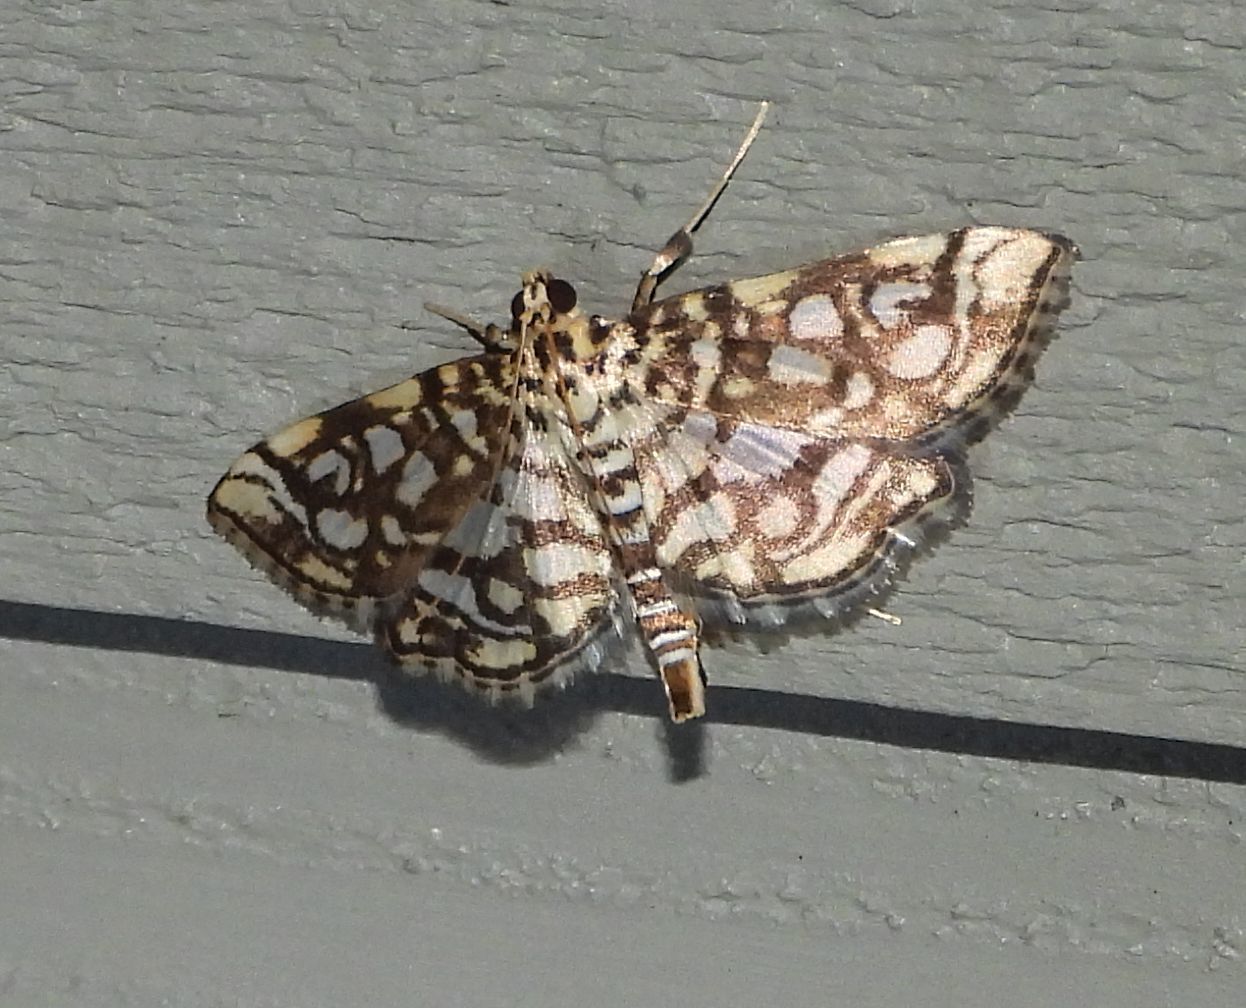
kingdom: Animalia
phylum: Arthropoda
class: Insecta
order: Lepidoptera
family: Crambidae
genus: Lygropia
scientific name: Lygropia rivulalis
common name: Bog lygropia moth
